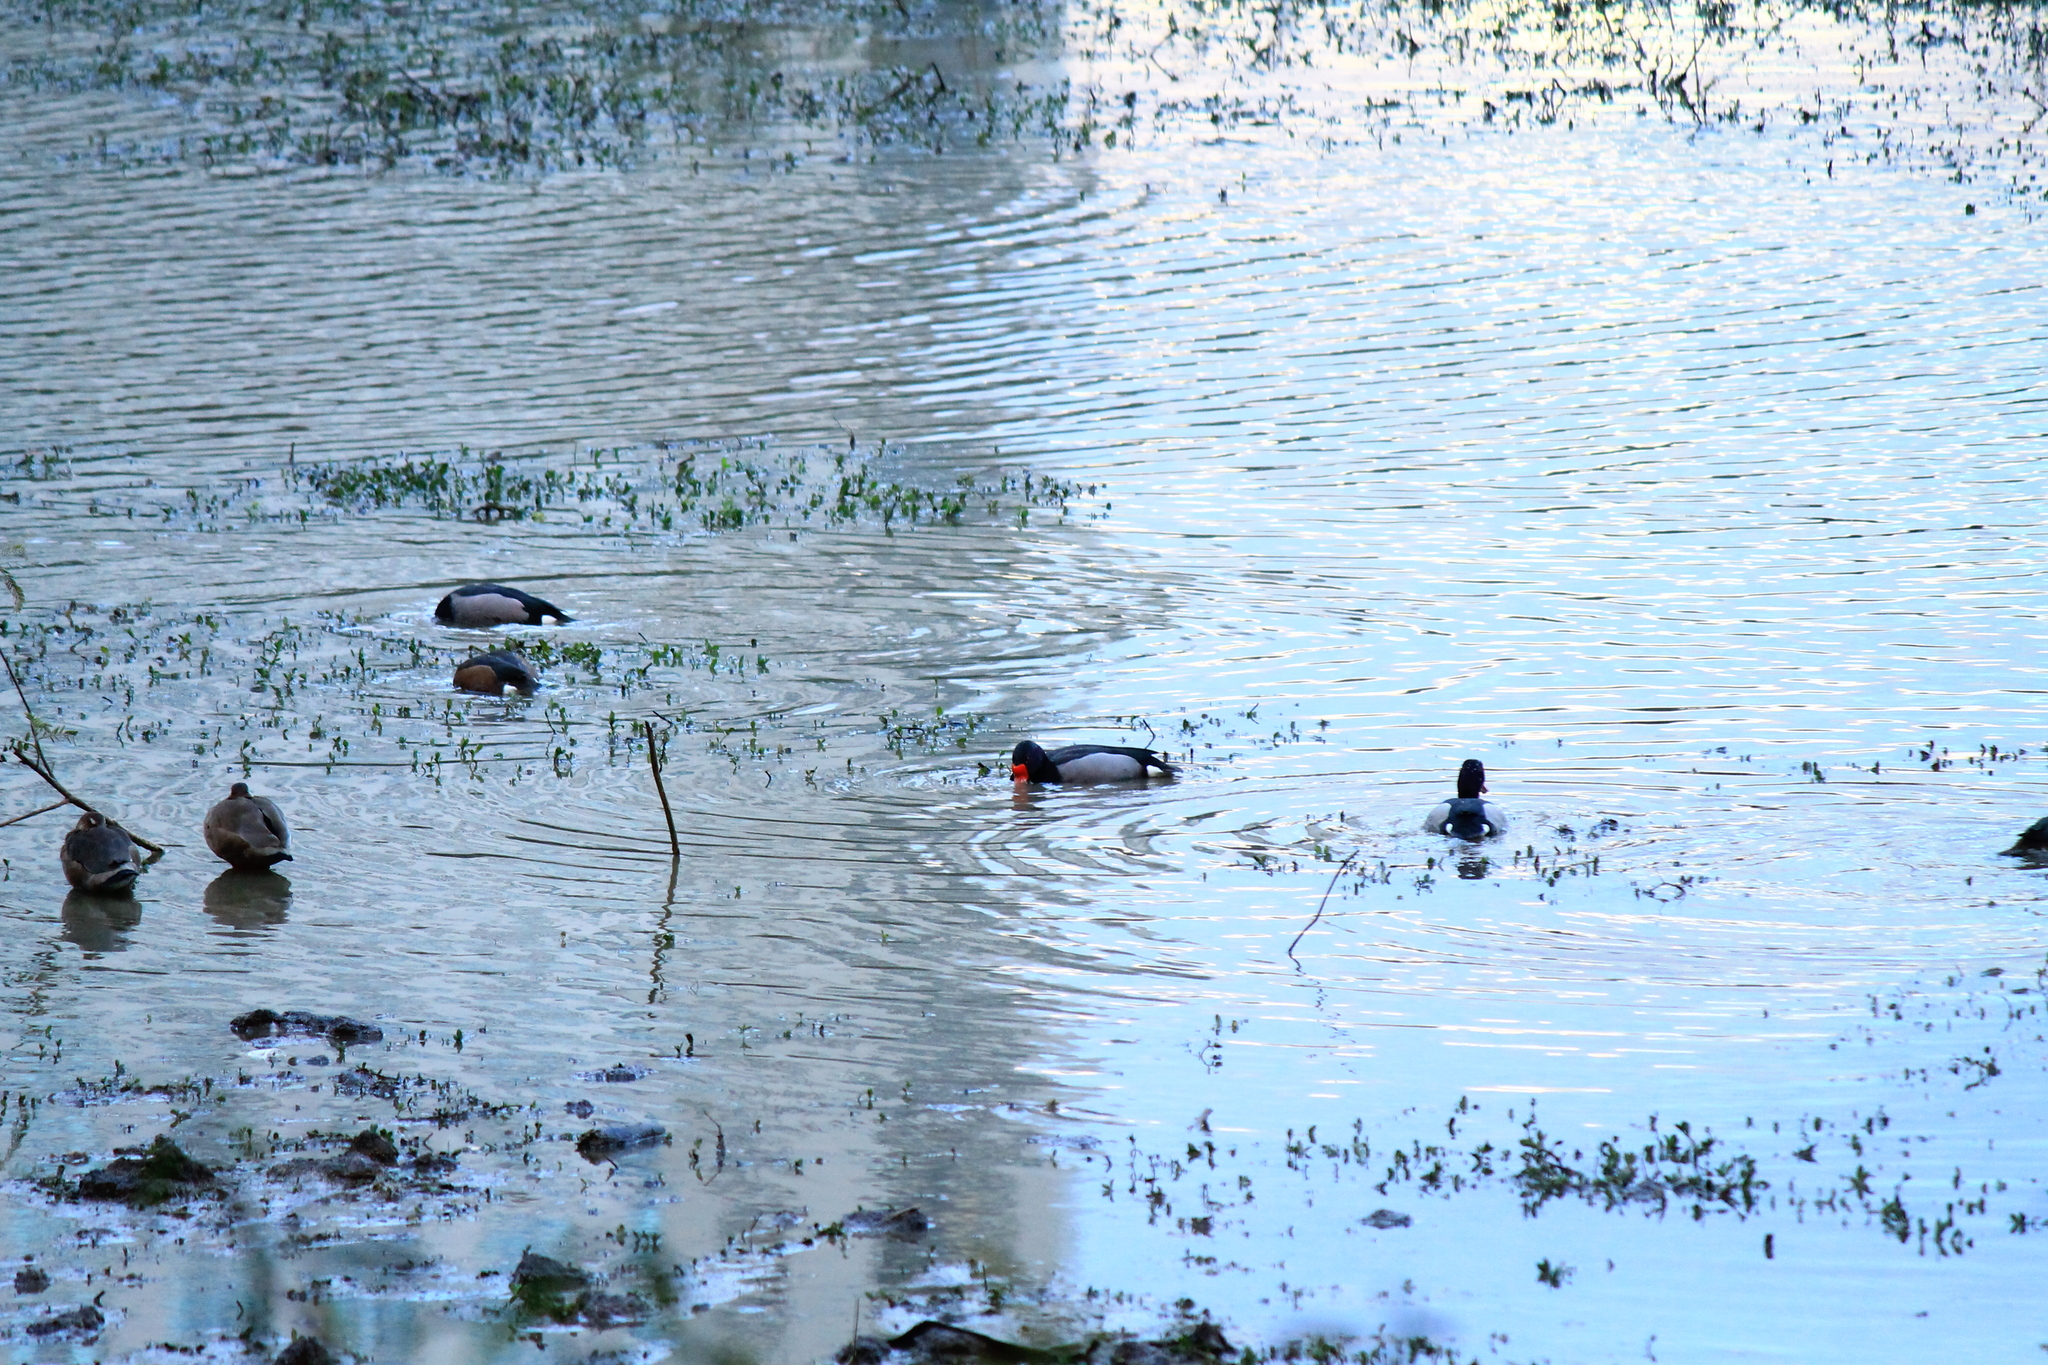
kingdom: Animalia
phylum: Chordata
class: Aves
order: Anseriformes
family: Anatidae
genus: Netta
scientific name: Netta peposaca
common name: Rosy-billed pochard
